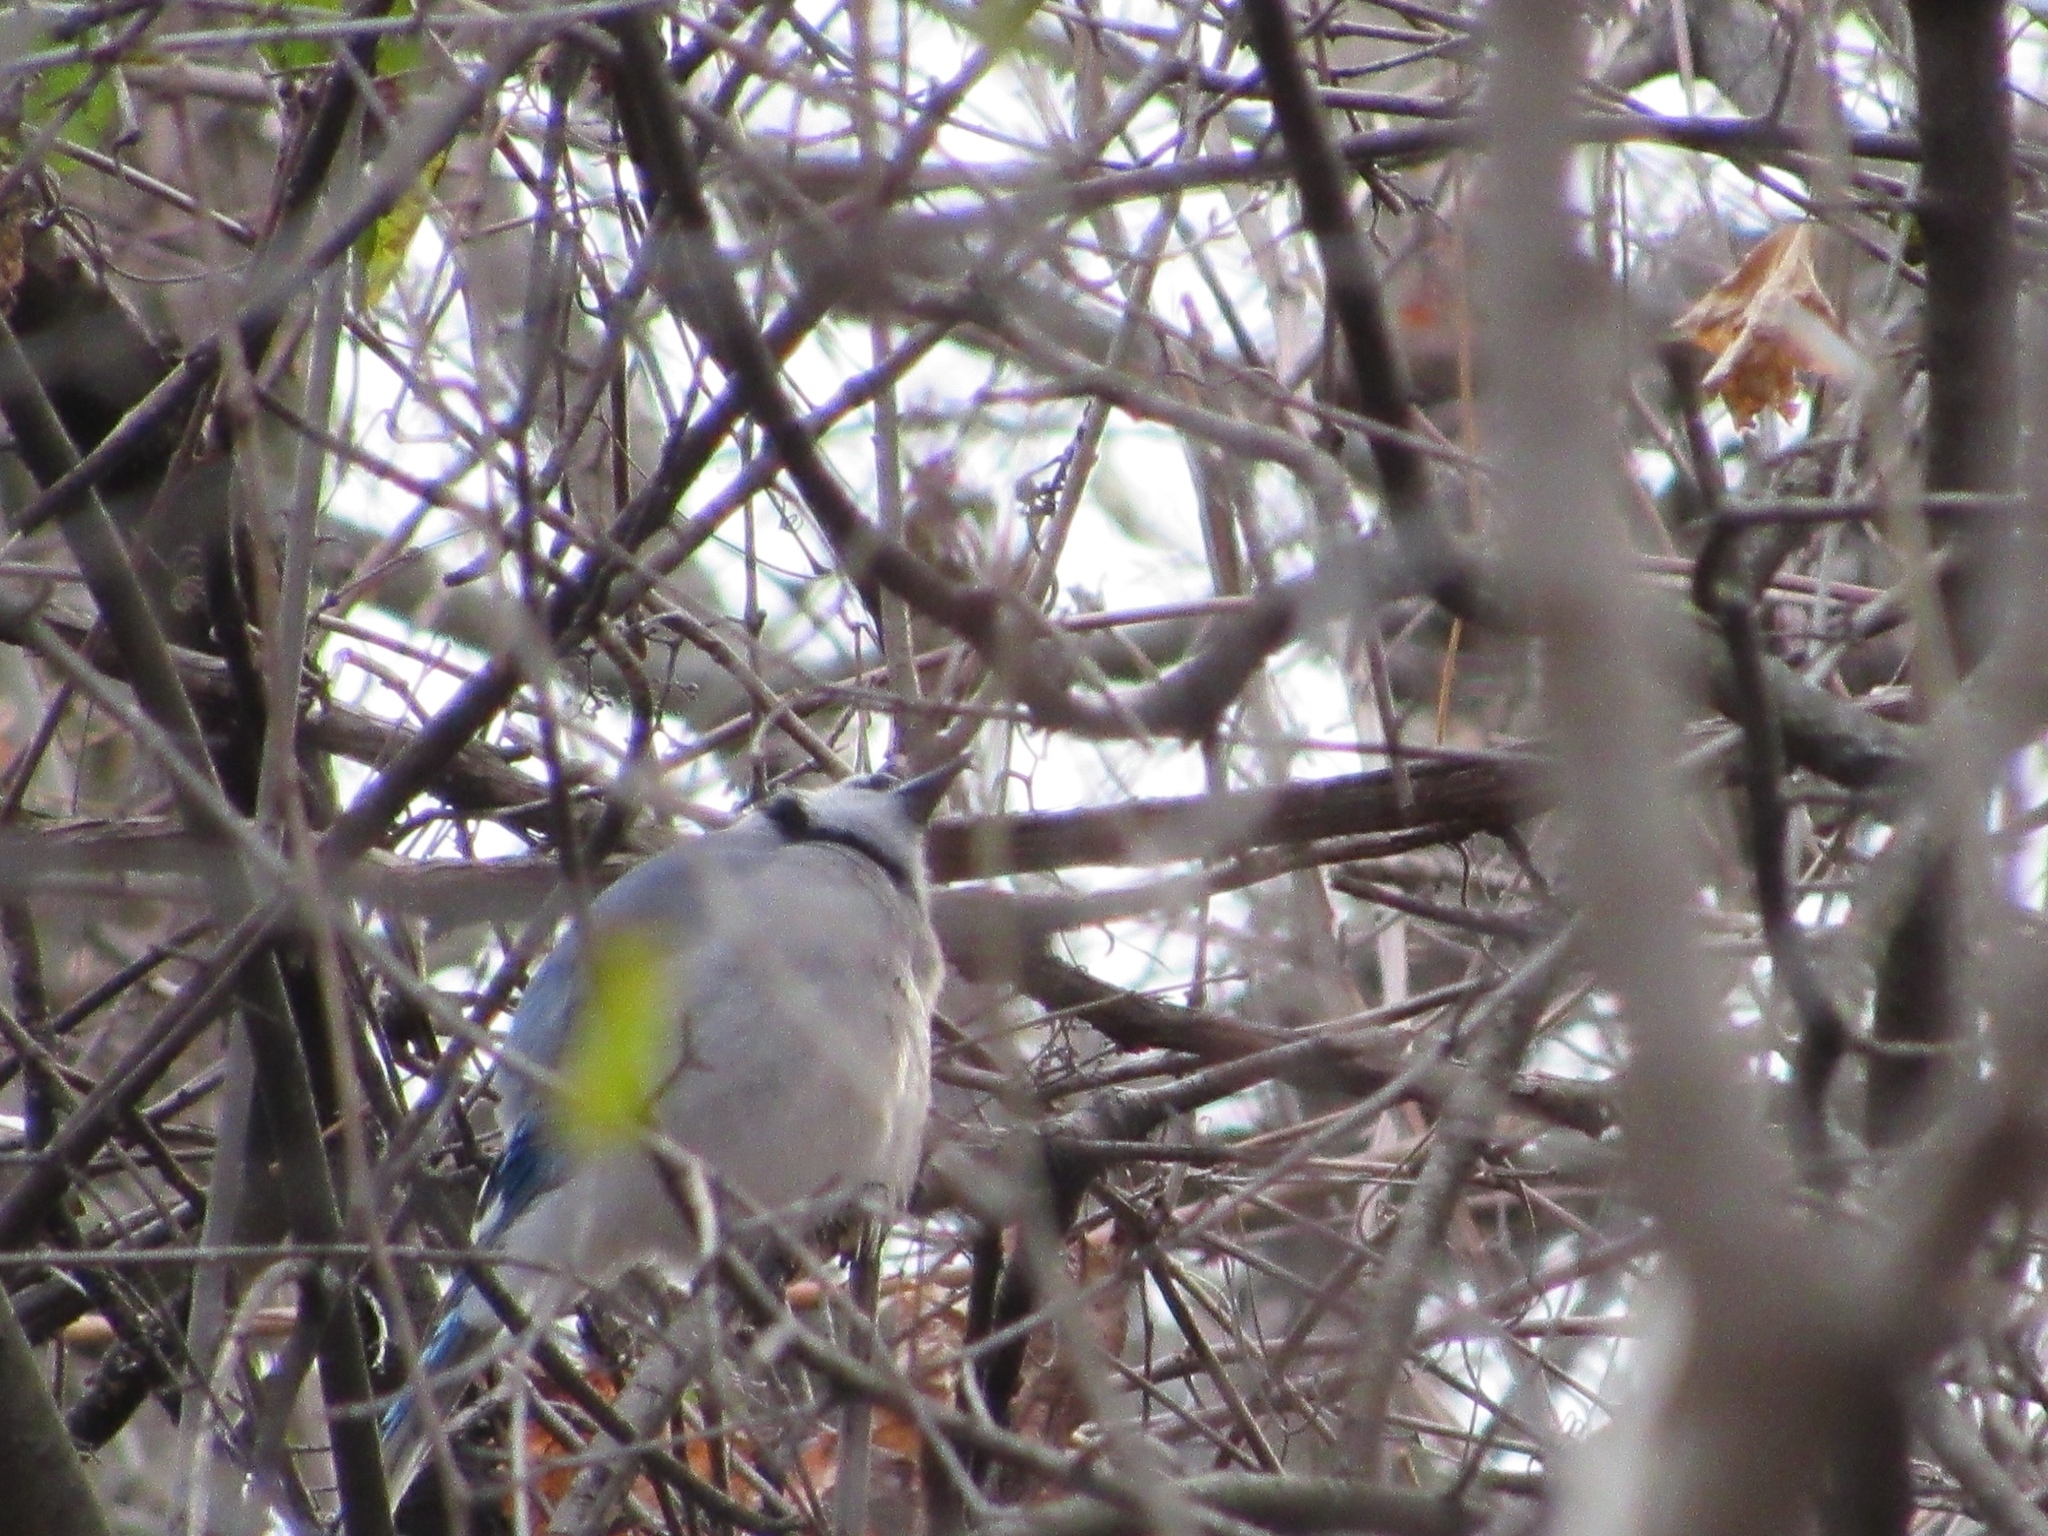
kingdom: Animalia
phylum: Chordata
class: Aves
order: Passeriformes
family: Corvidae
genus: Cyanocitta
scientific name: Cyanocitta cristata
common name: Blue jay
